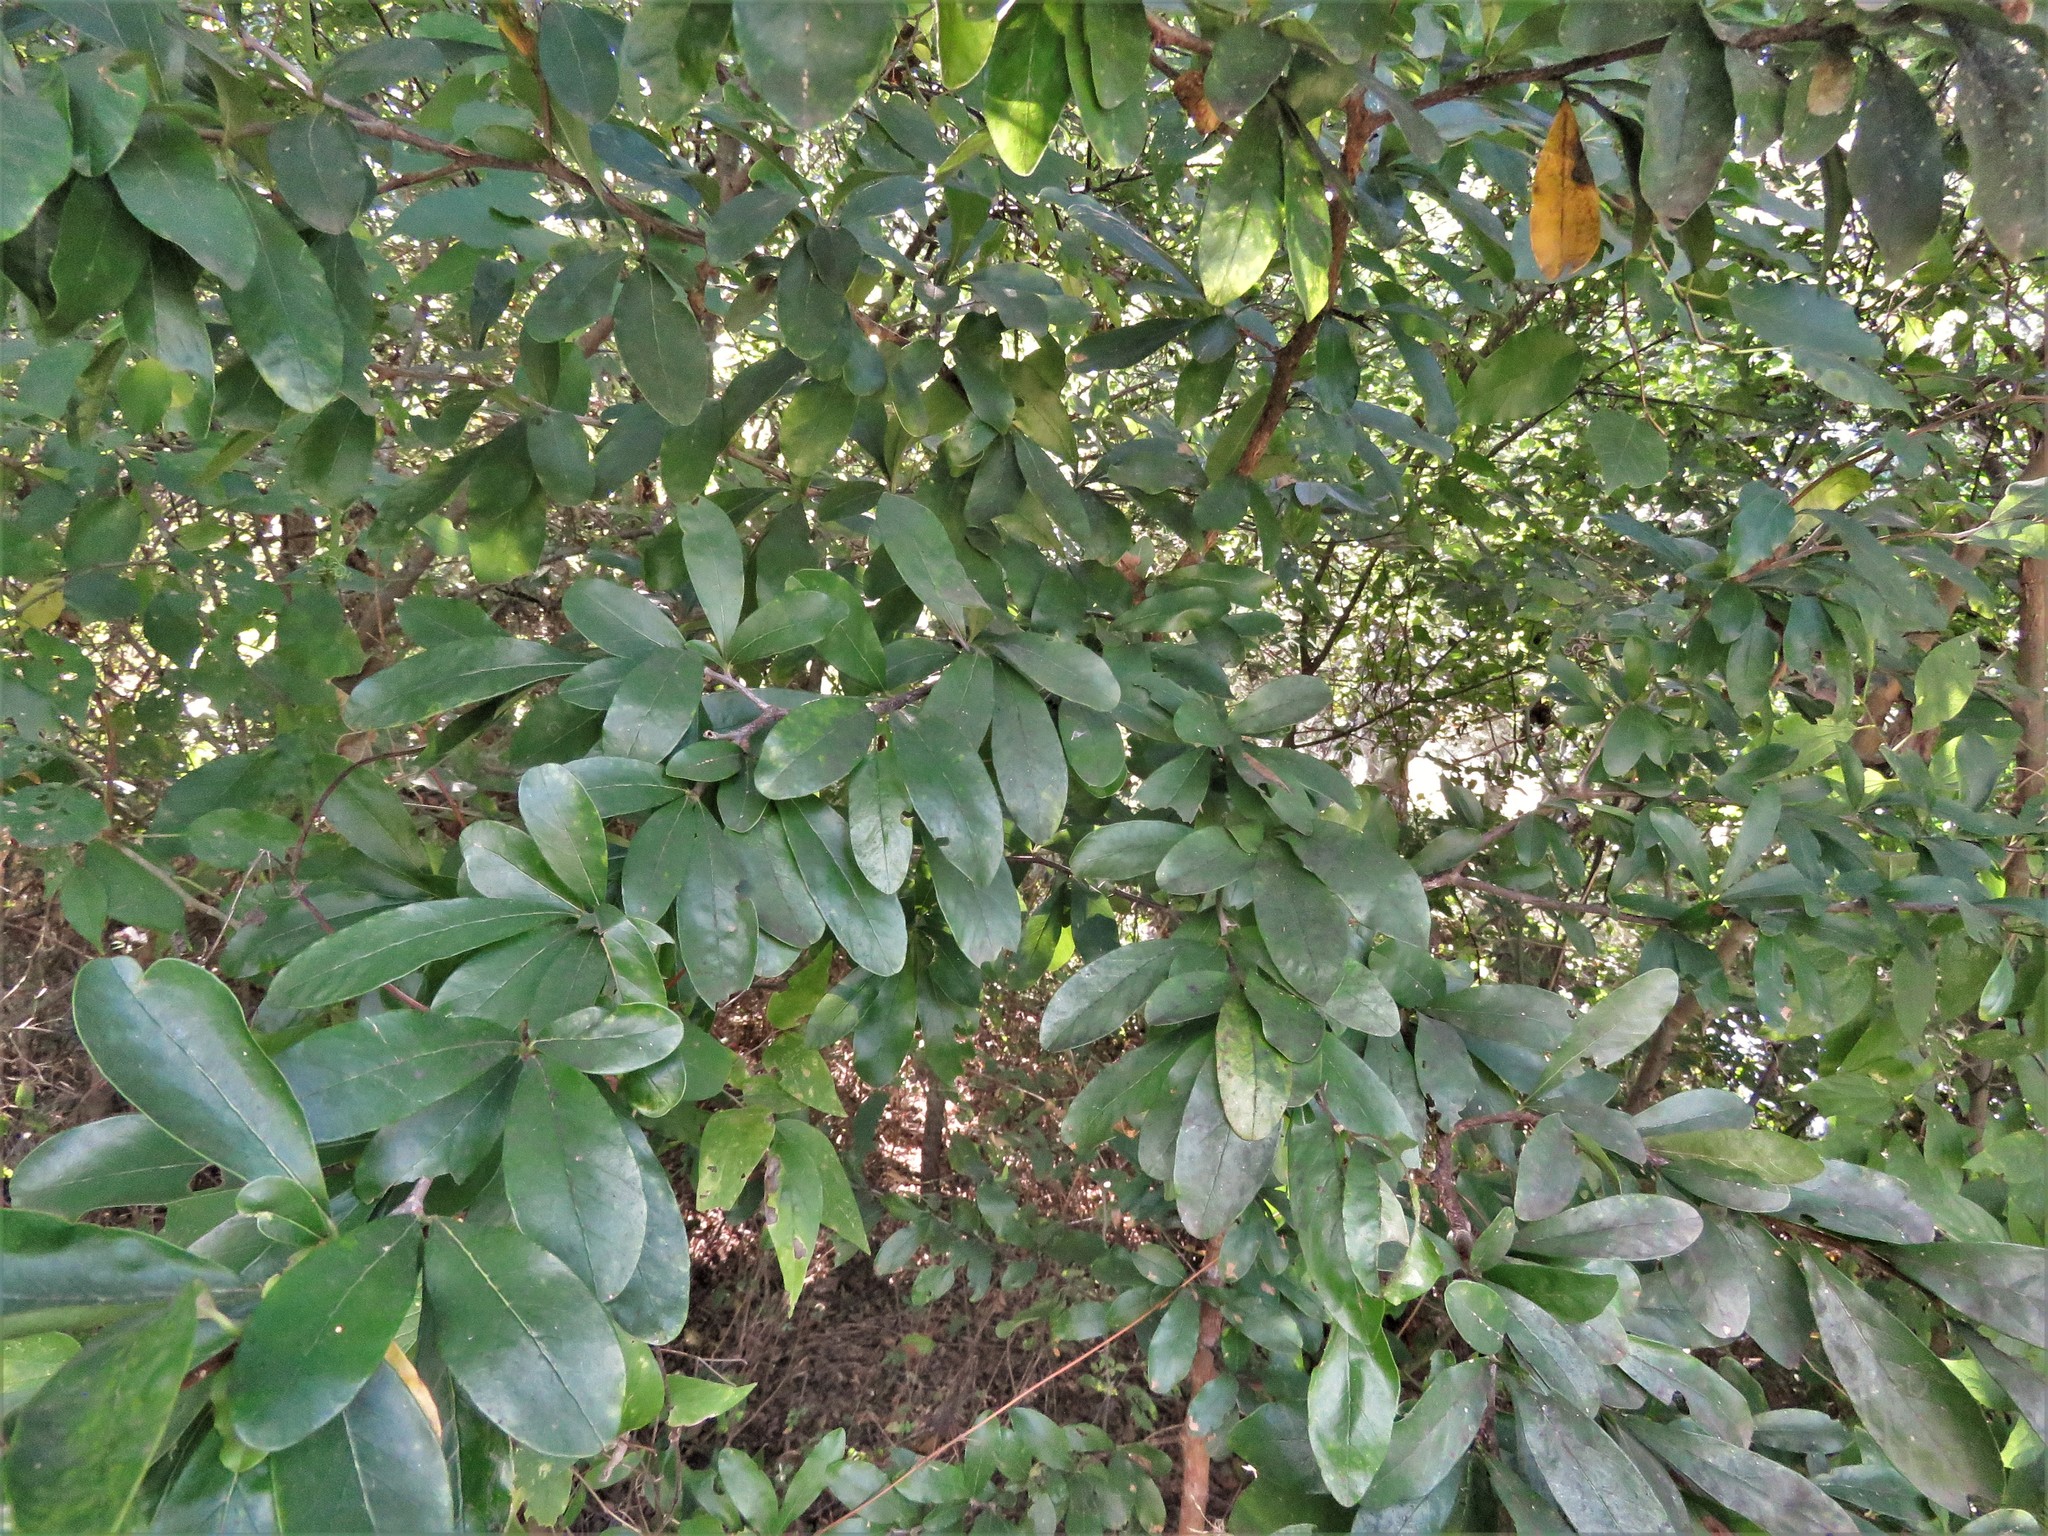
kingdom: Plantae
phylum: Tracheophyta
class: Magnoliopsida
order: Ericales
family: Sapotaceae
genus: Sideroxylon
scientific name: Sideroxylon lanuginosum
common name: Chittamwood
